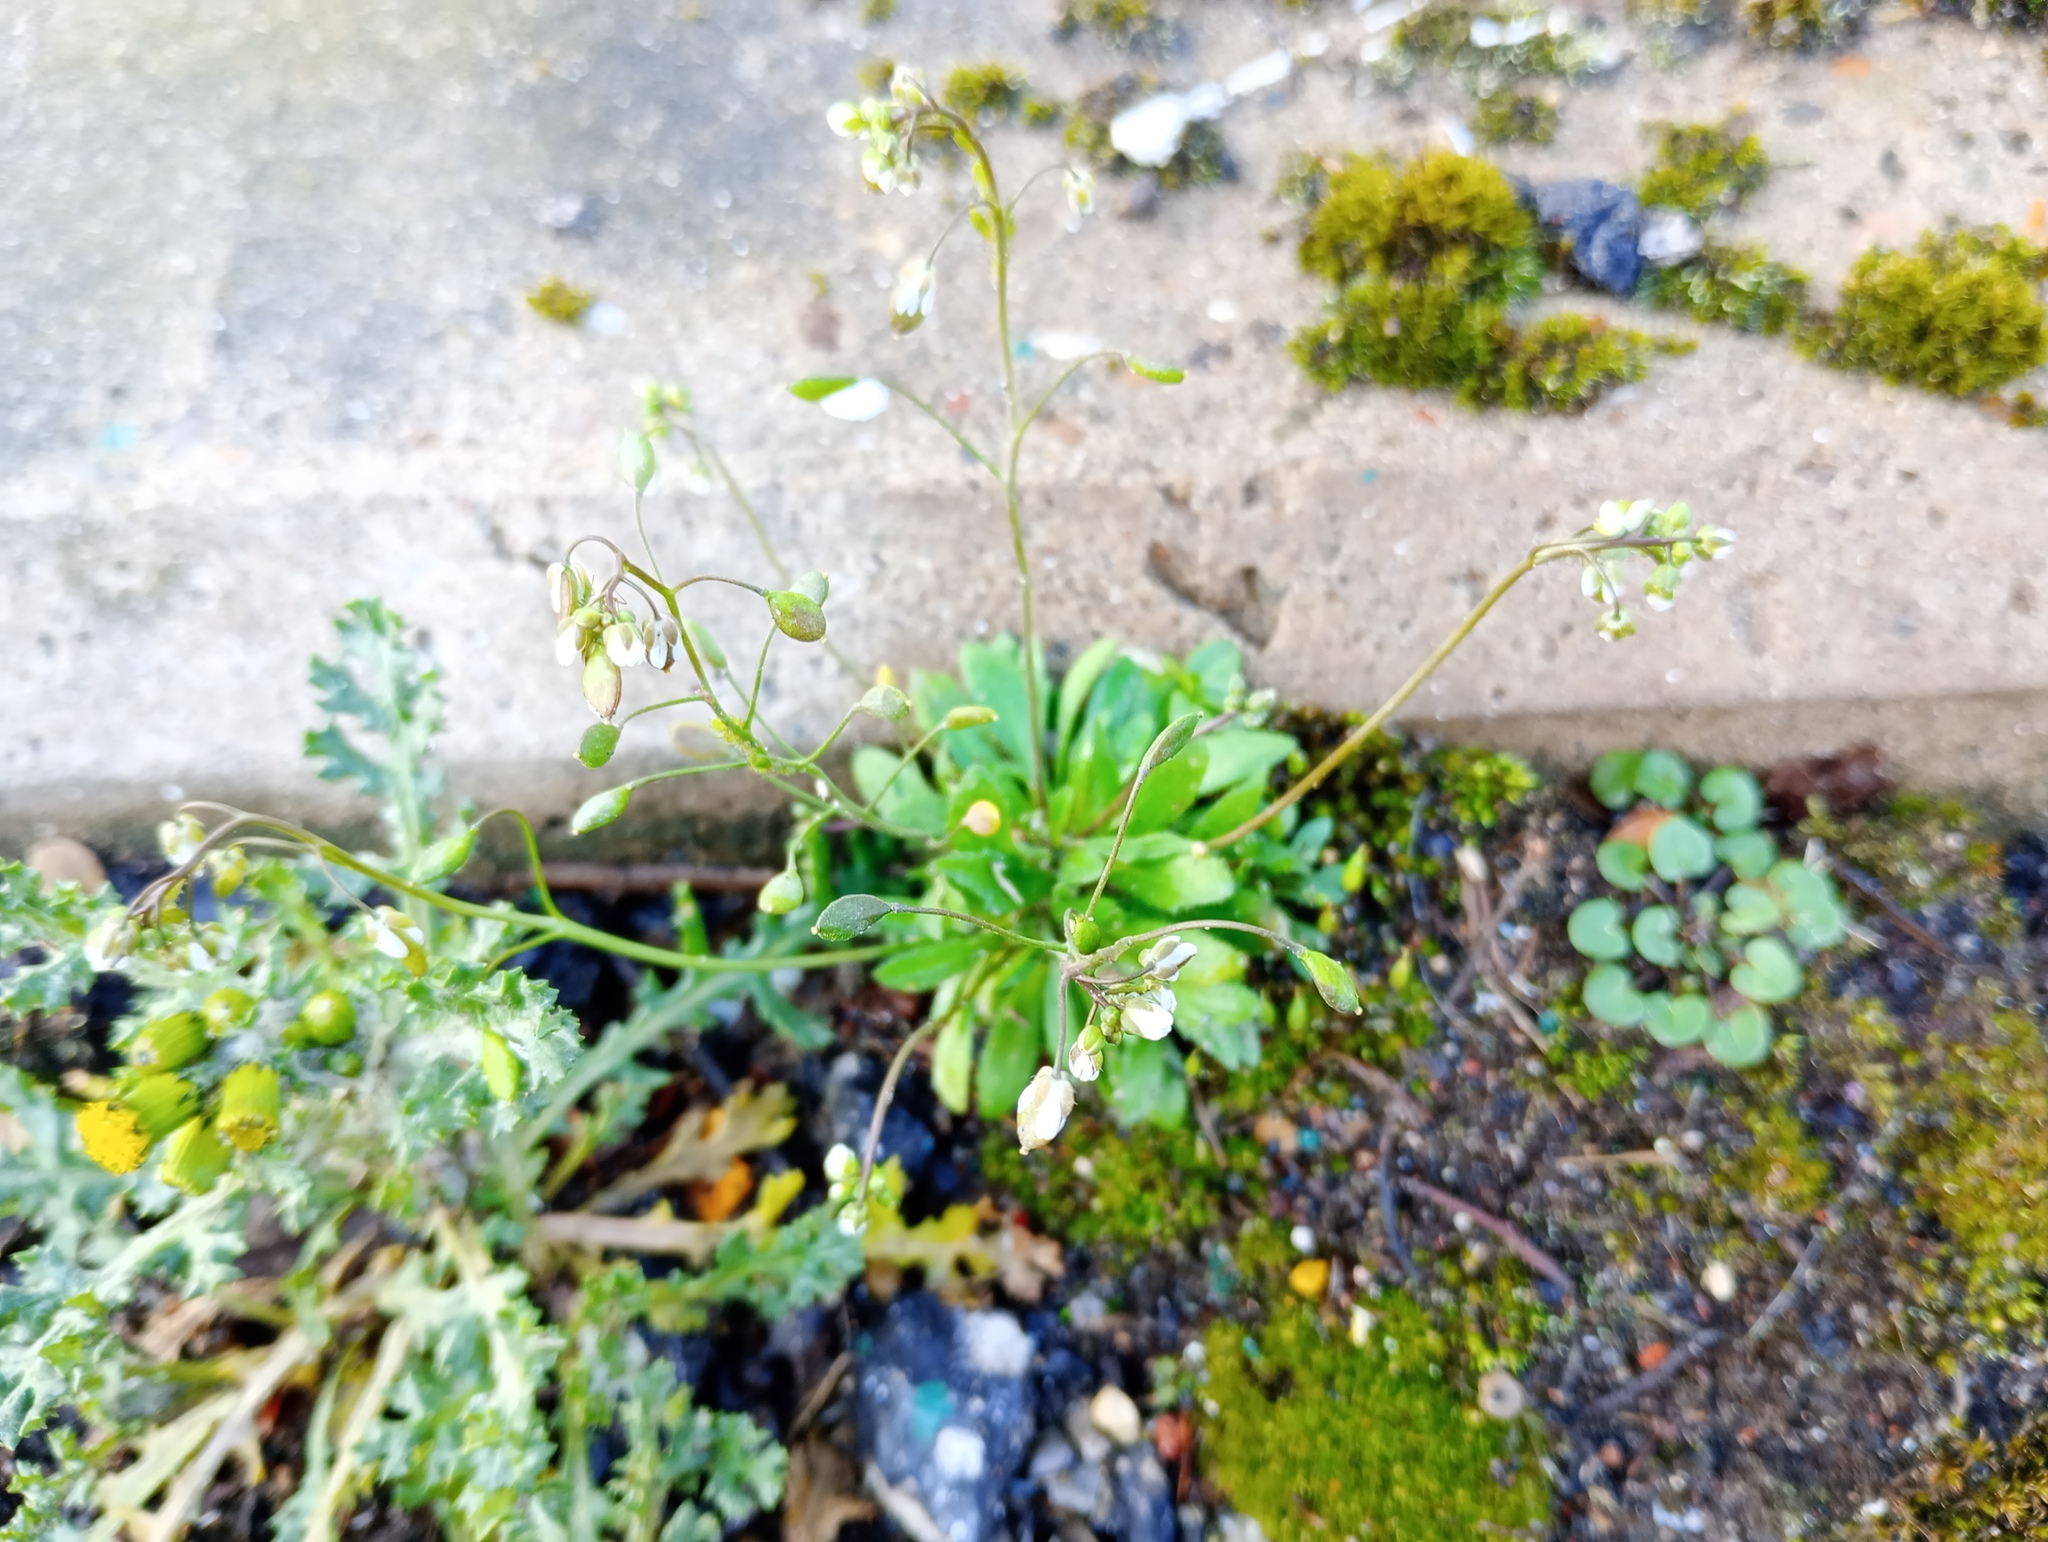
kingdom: Plantae
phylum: Tracheophyta
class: Magnoliopsida
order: Brassicales
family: Brassicaceae
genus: Draba
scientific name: Draba verna
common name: Spring draba
